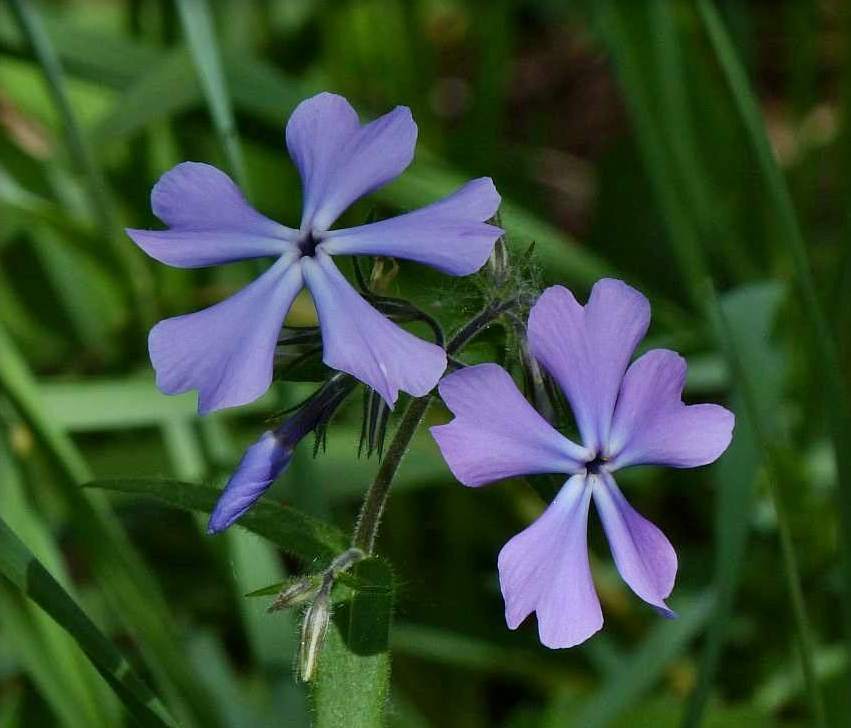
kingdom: Plantae
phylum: Tracheophyta
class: Magnoliopsida
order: Ericales
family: Polemoniaceae
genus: Phlox
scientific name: Phlox divaricata
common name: Blue phlox
